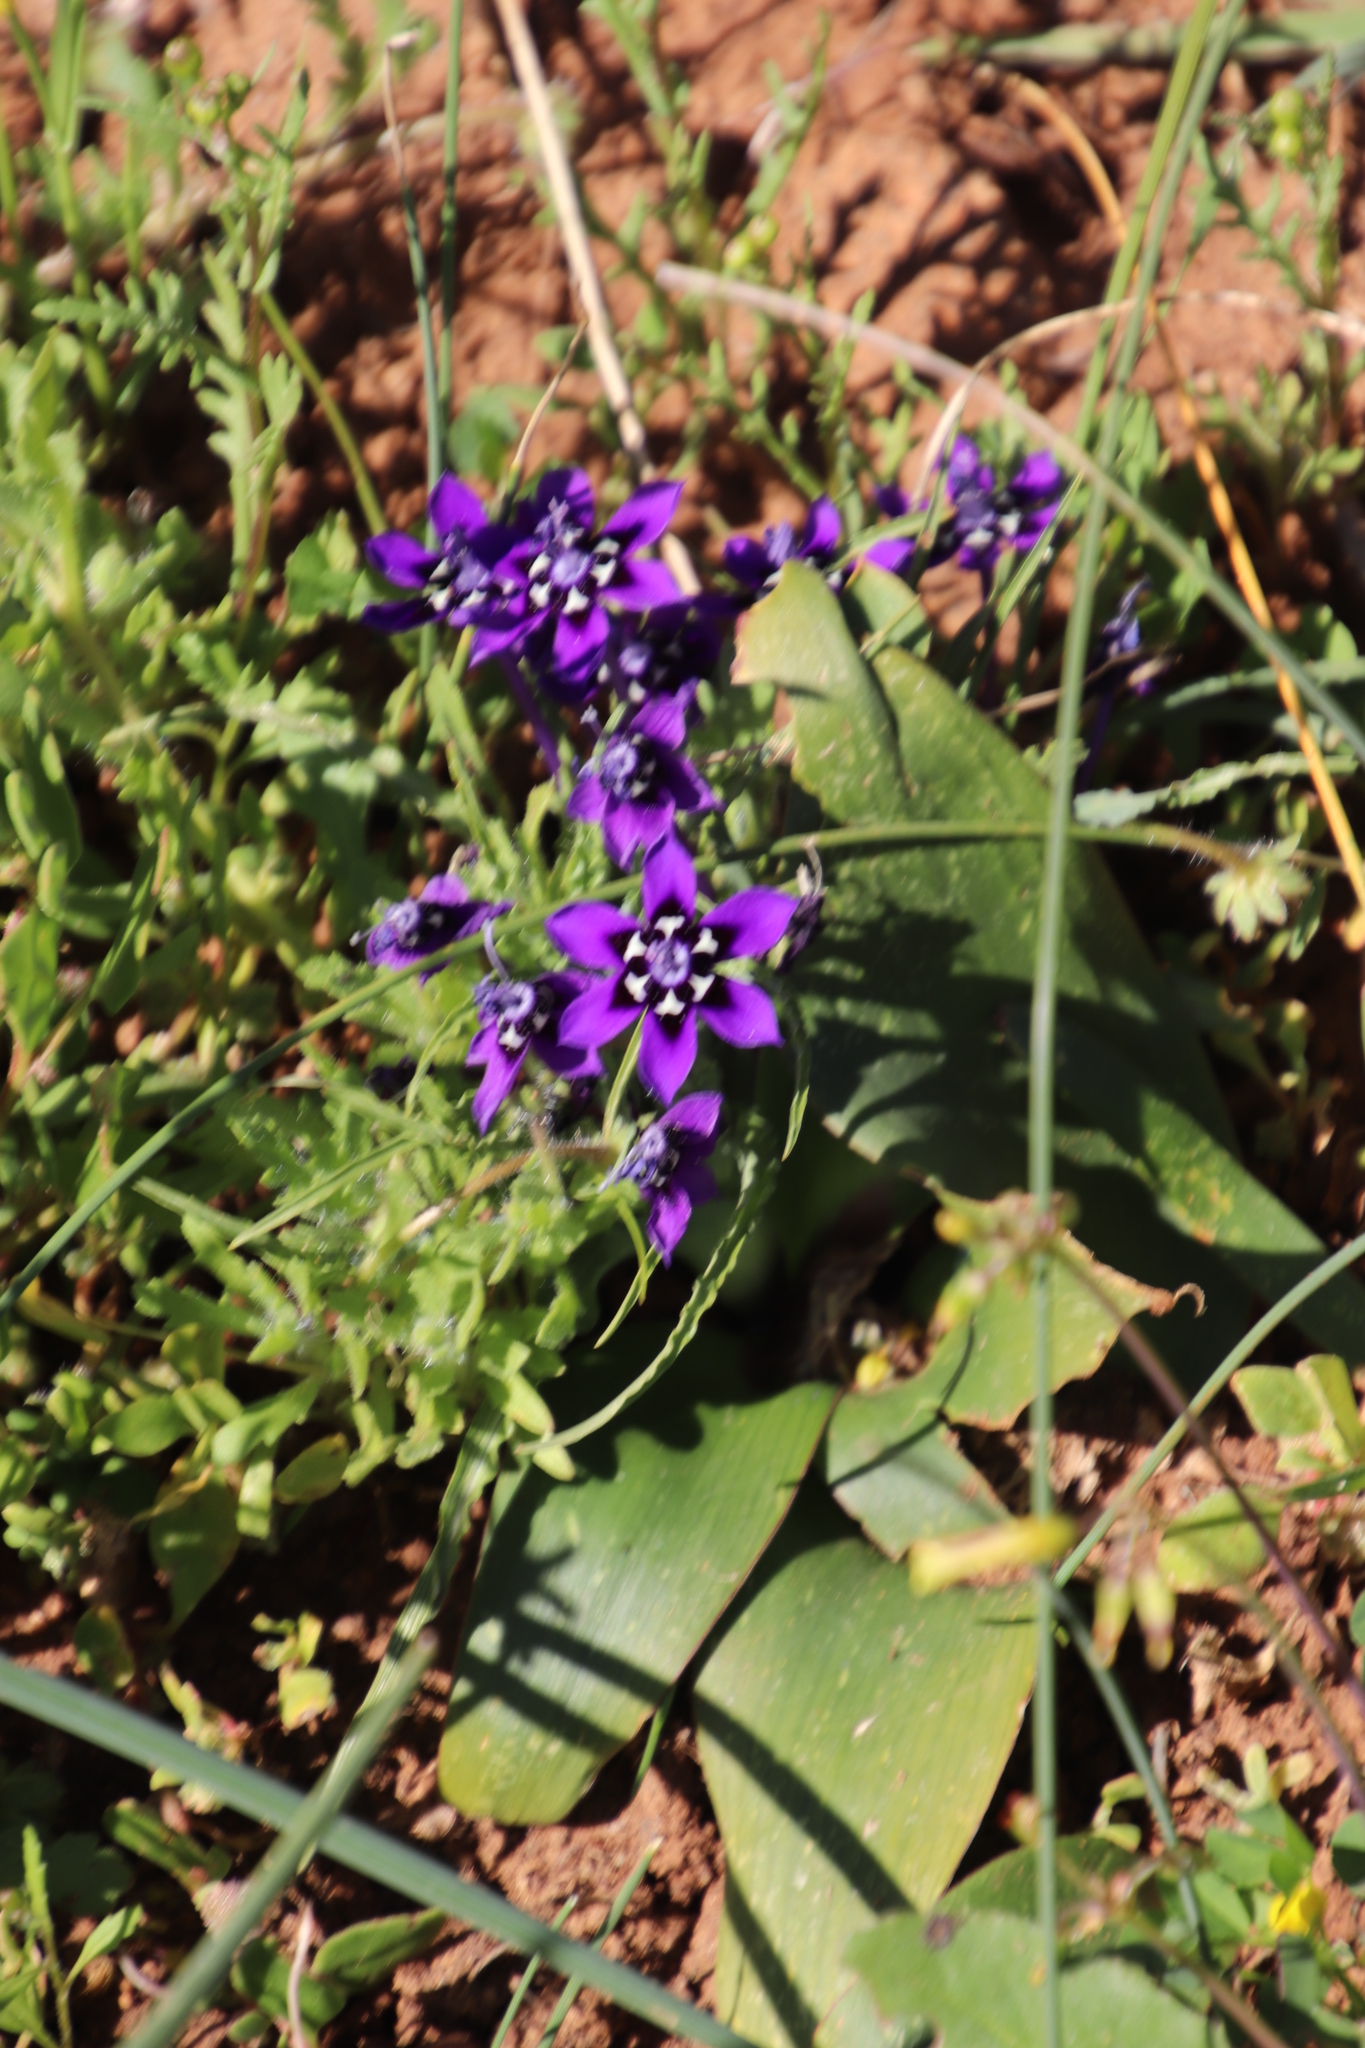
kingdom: Plantae
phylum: Tracheophyta
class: Liliopsida
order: Asparagales
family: Iridaceae
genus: Lapeirousia
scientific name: Lapeirousia oreogena
